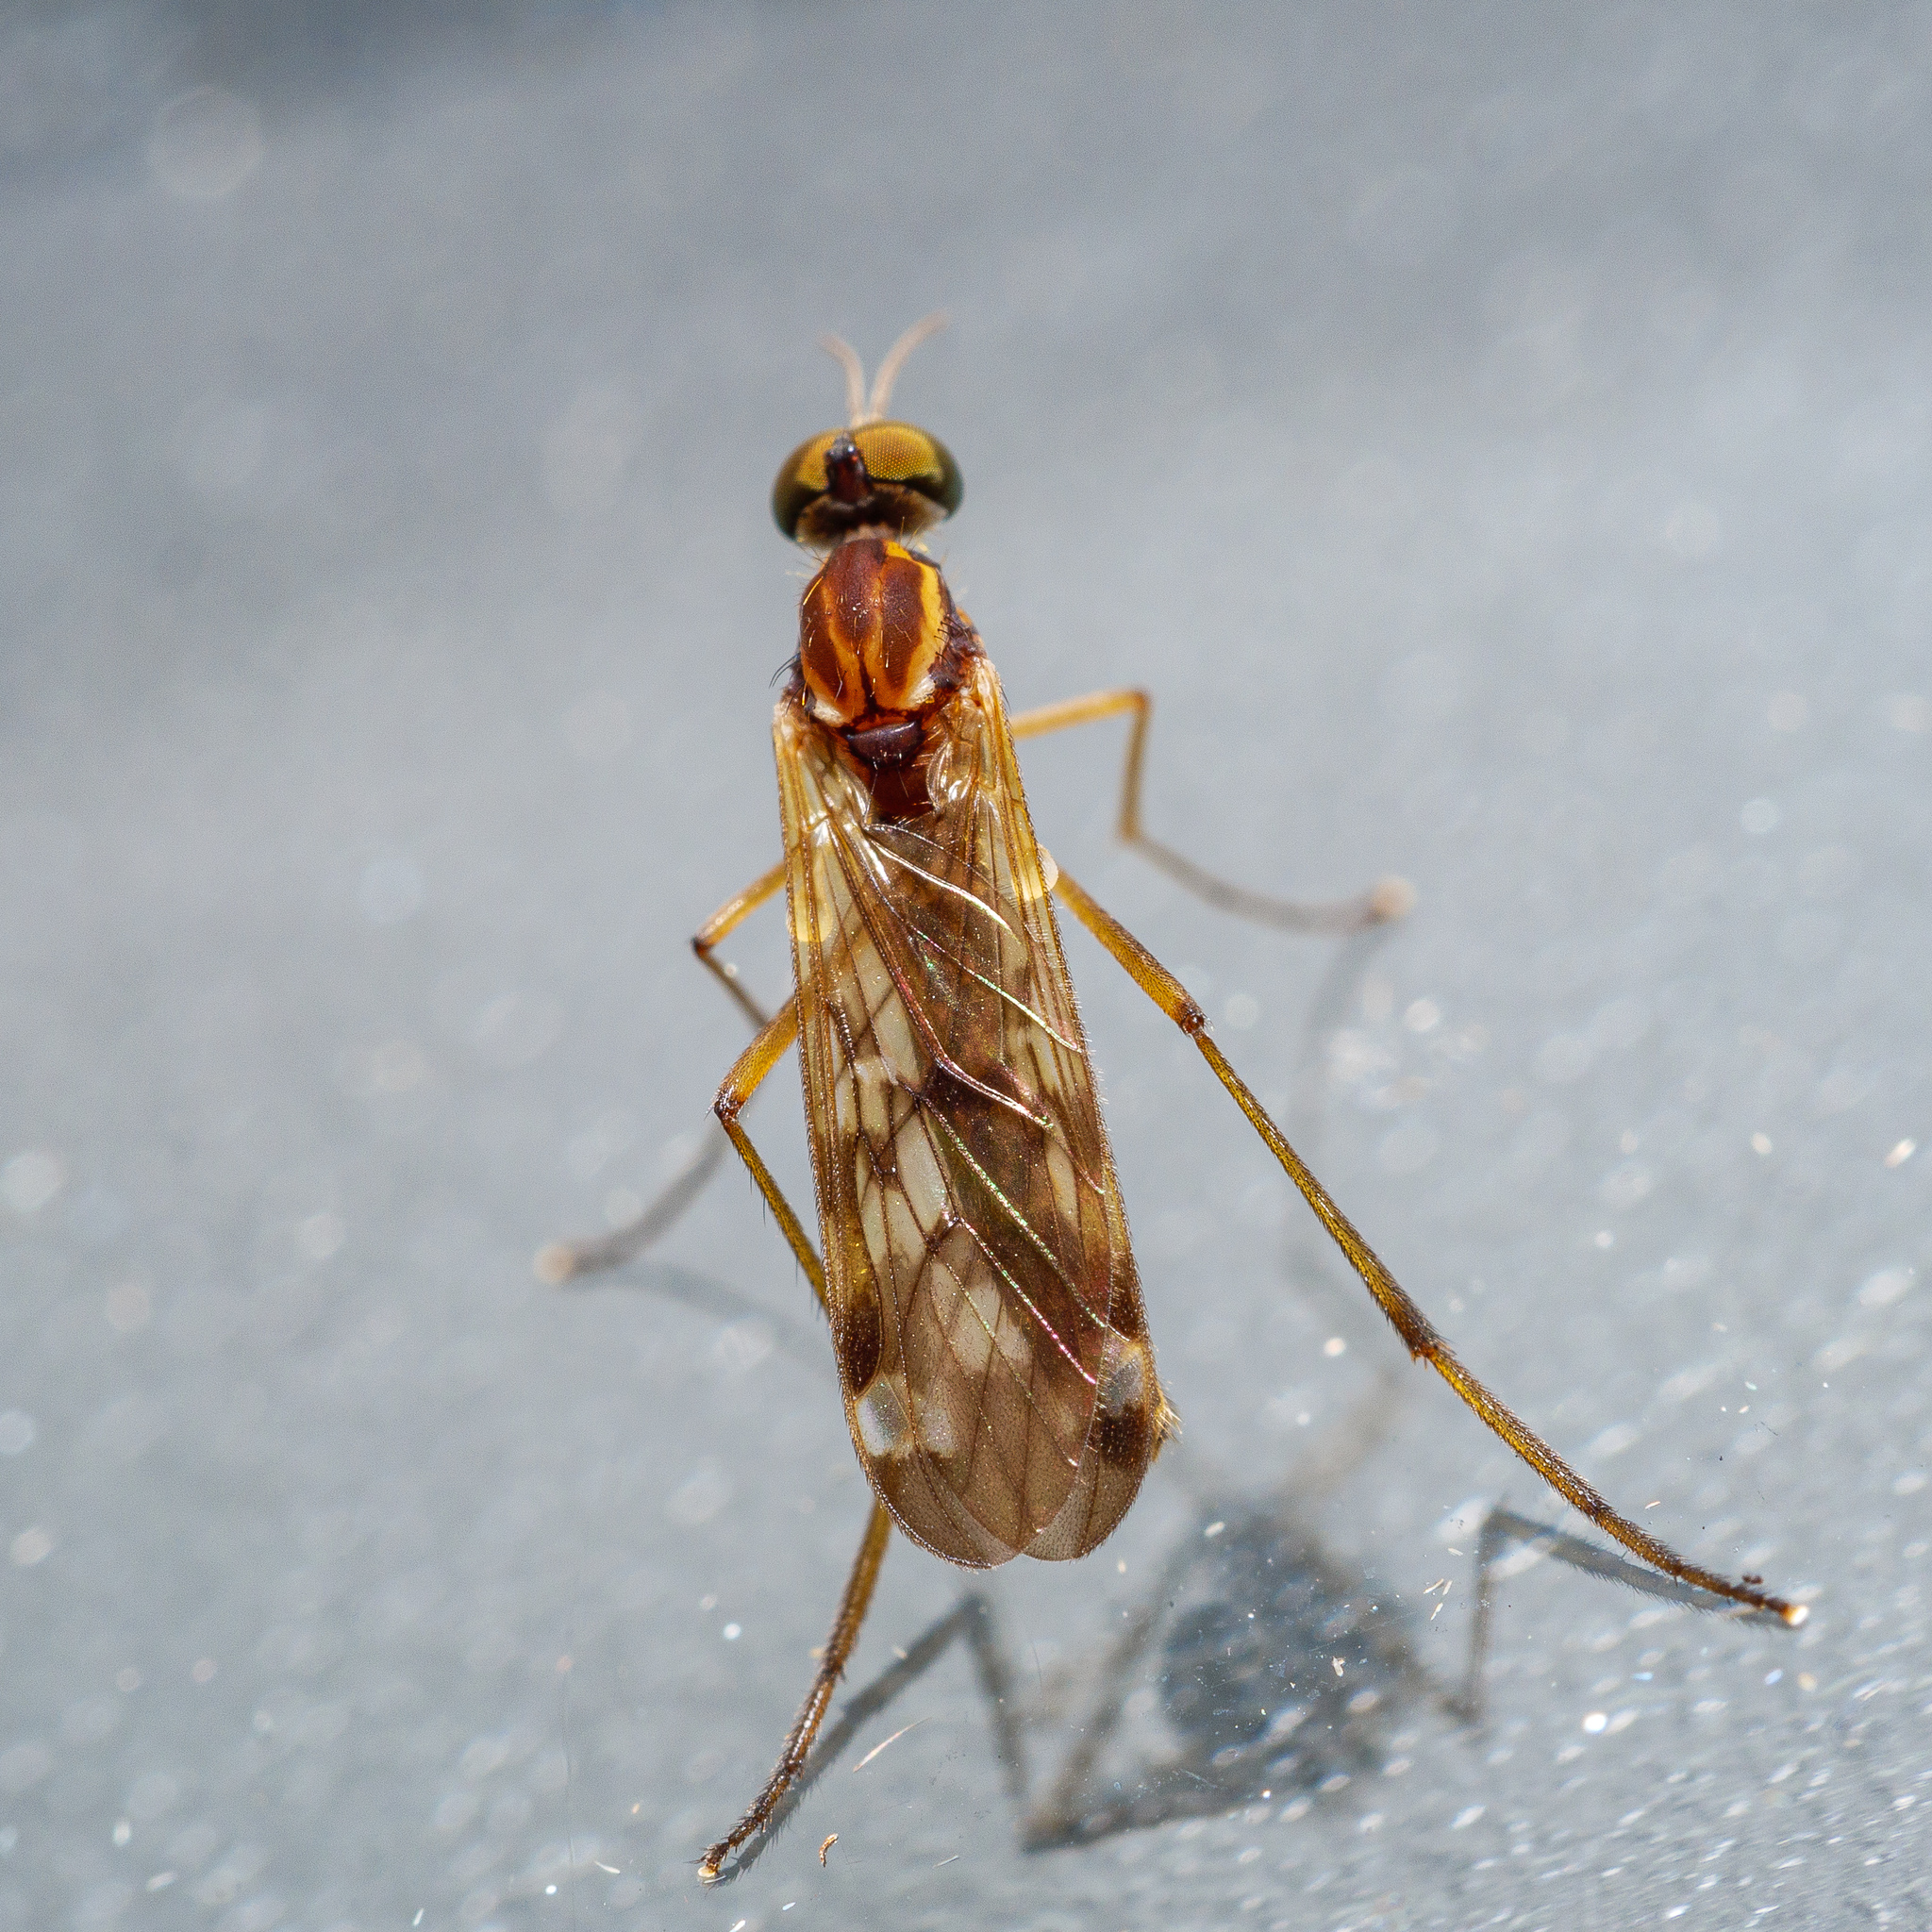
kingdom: Animalia
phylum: Arthropoda
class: Insecta
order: Diptera
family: Anisopodidae
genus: Sylvicola
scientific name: Sylvicola notatus
